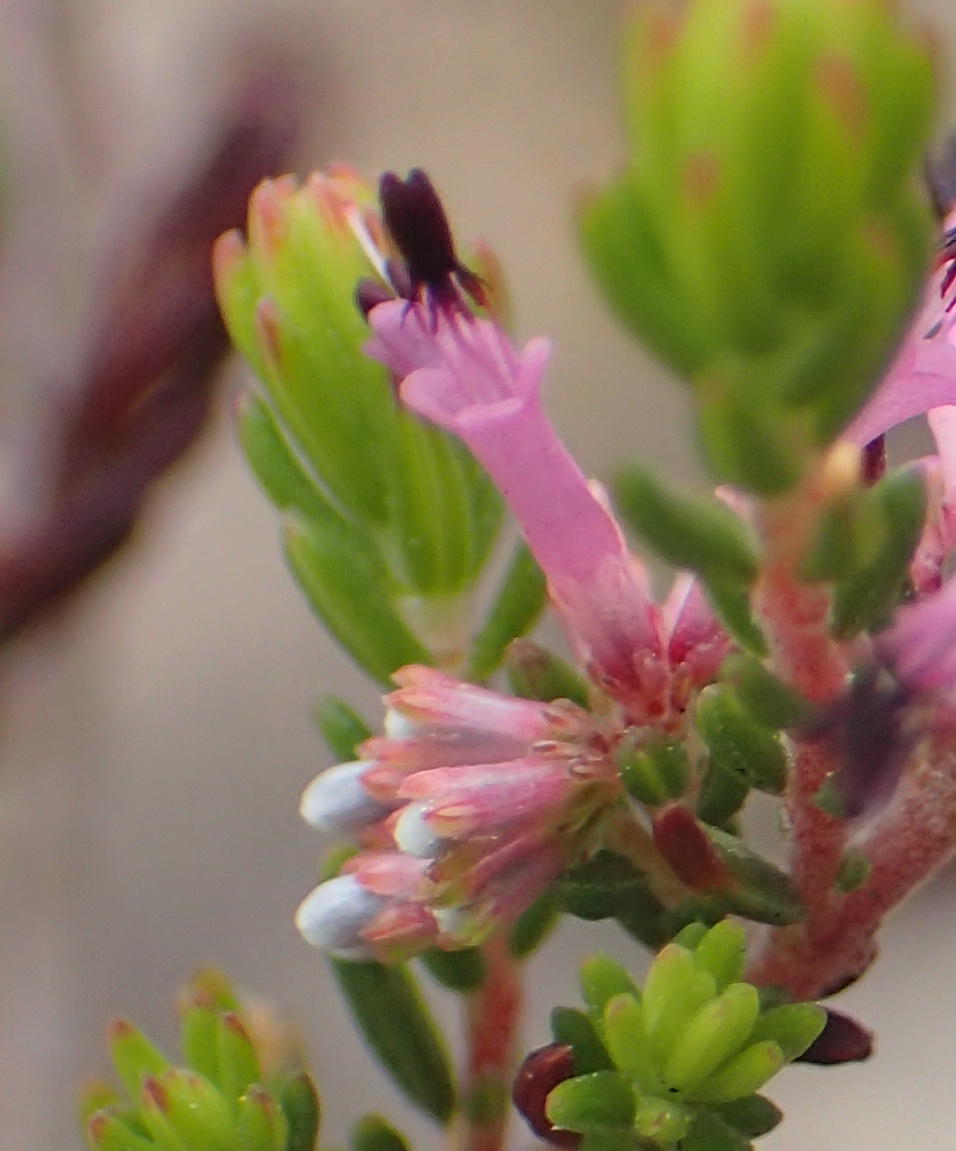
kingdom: Plantae
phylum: Tracheophyta
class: Magnoliopsida
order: Ericales
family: Ericaceae
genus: Erica
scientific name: Erica uberiflora
